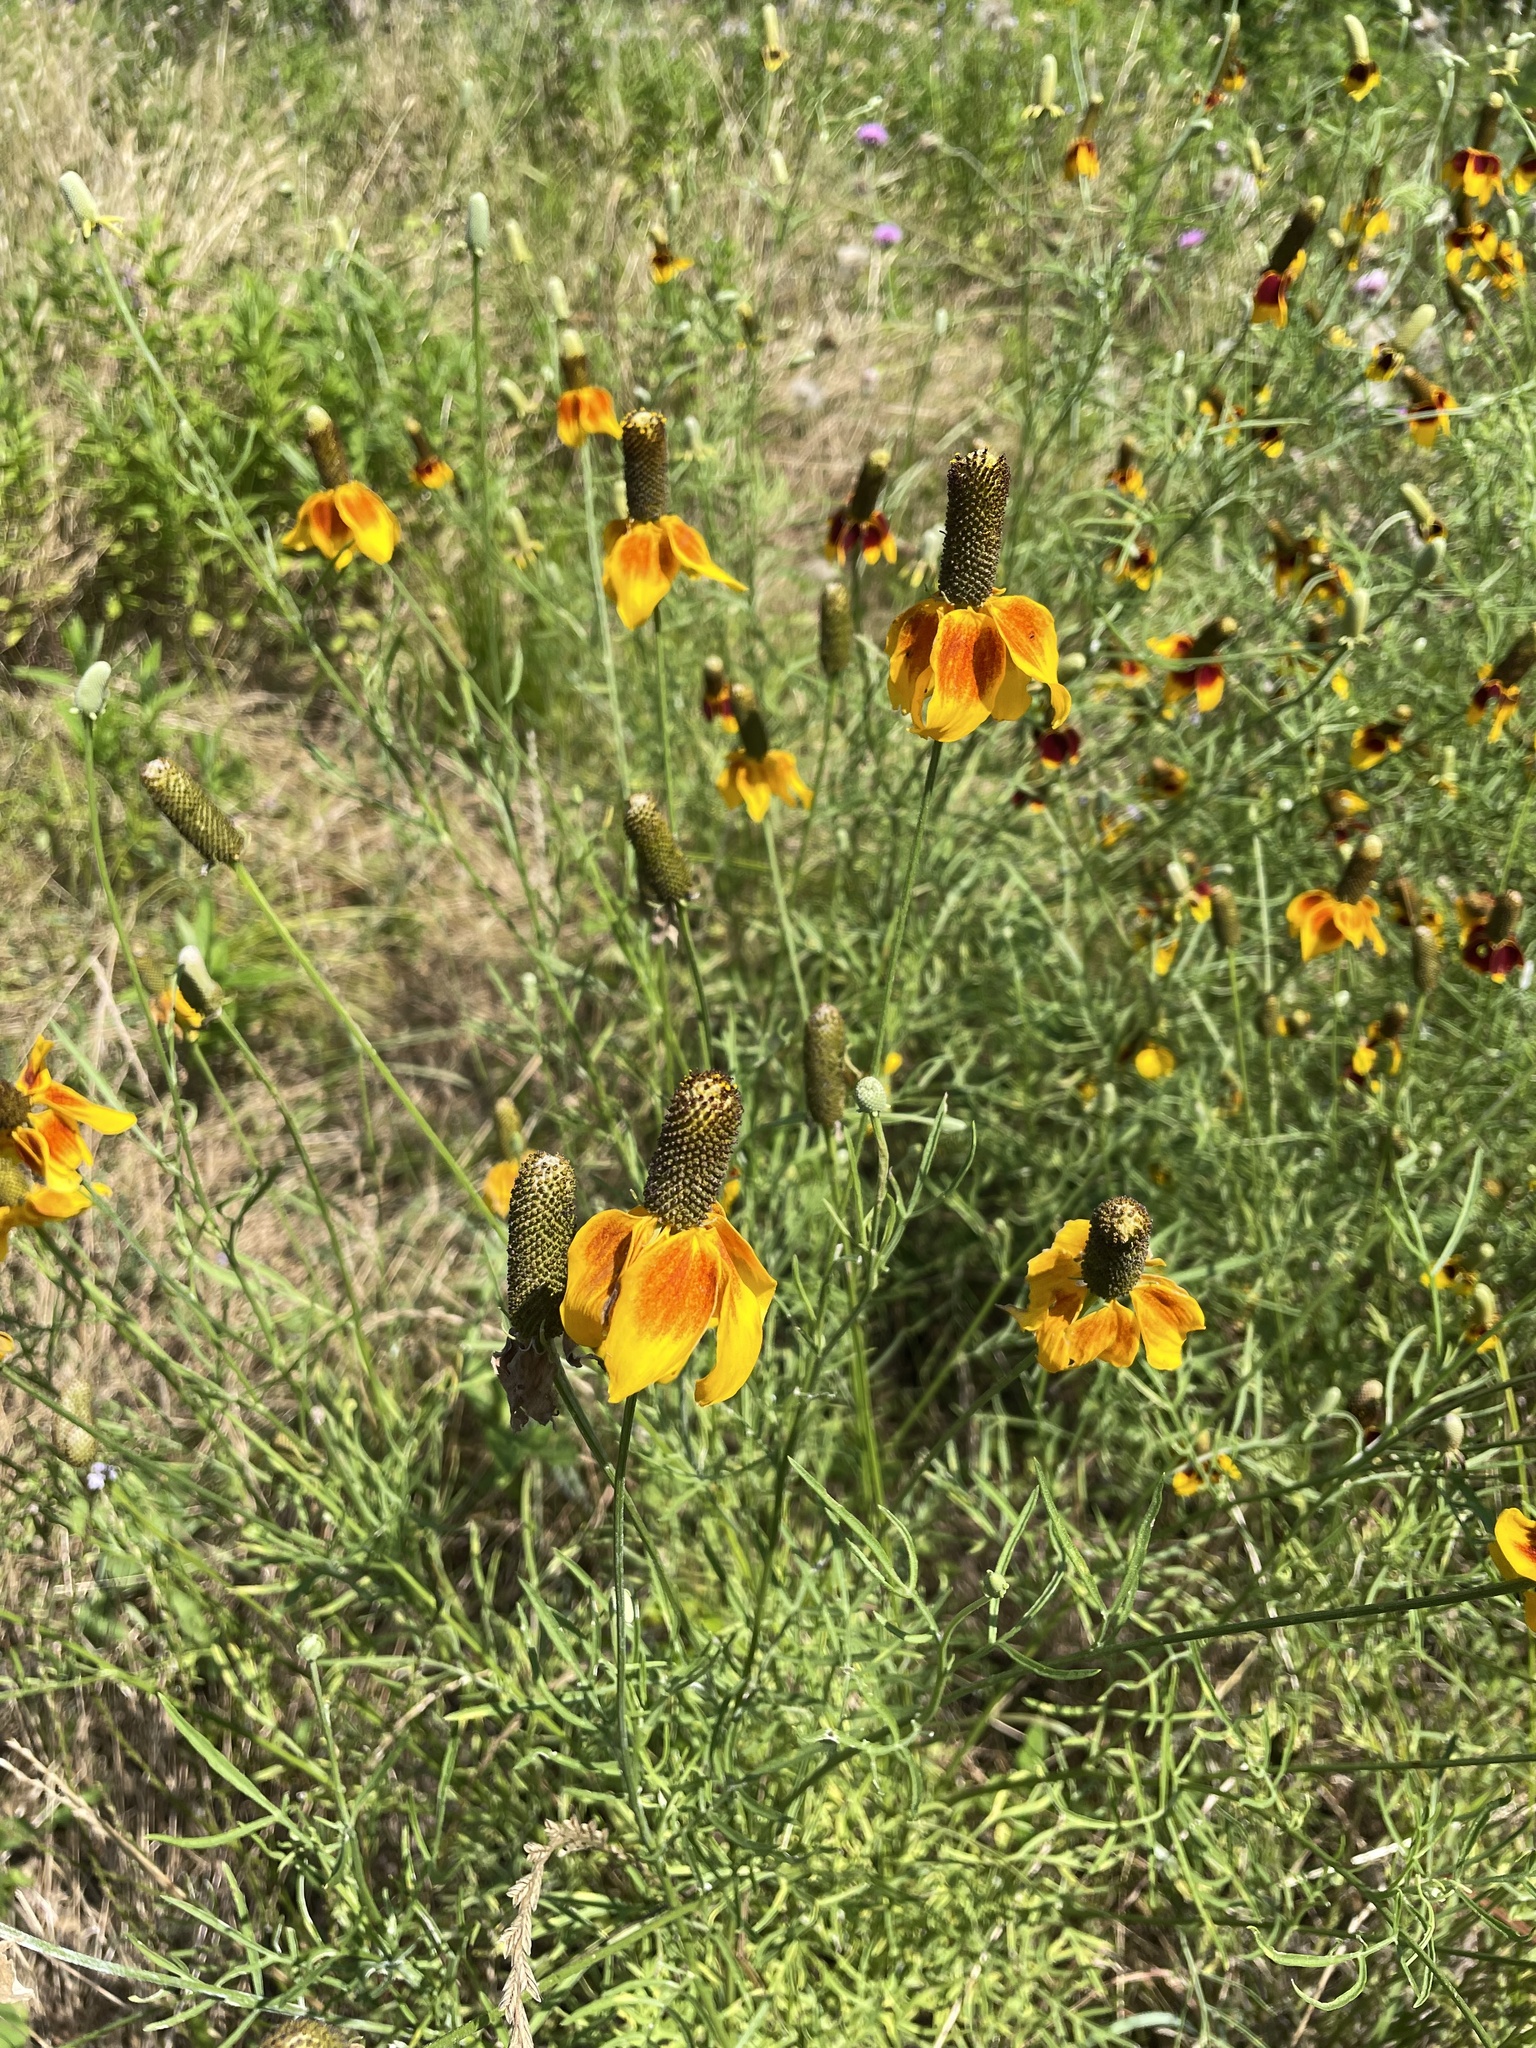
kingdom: Plantae
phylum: Tracheophyta
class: Magnoliopsida
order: Asterales
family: Asteraceae
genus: Ratibida
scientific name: Ratibida columnifera
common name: Prairie coneflower
